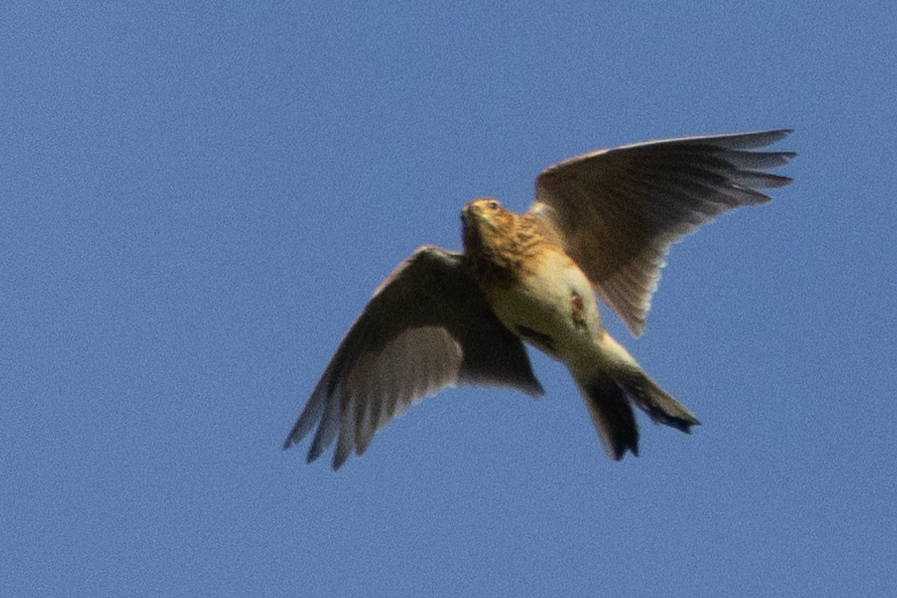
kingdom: Animalia
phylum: Chordata
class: Aves
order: Passeriformes
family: Alaudidae
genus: Alauda
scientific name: Alauda arvensis
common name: Eurasian skylark
